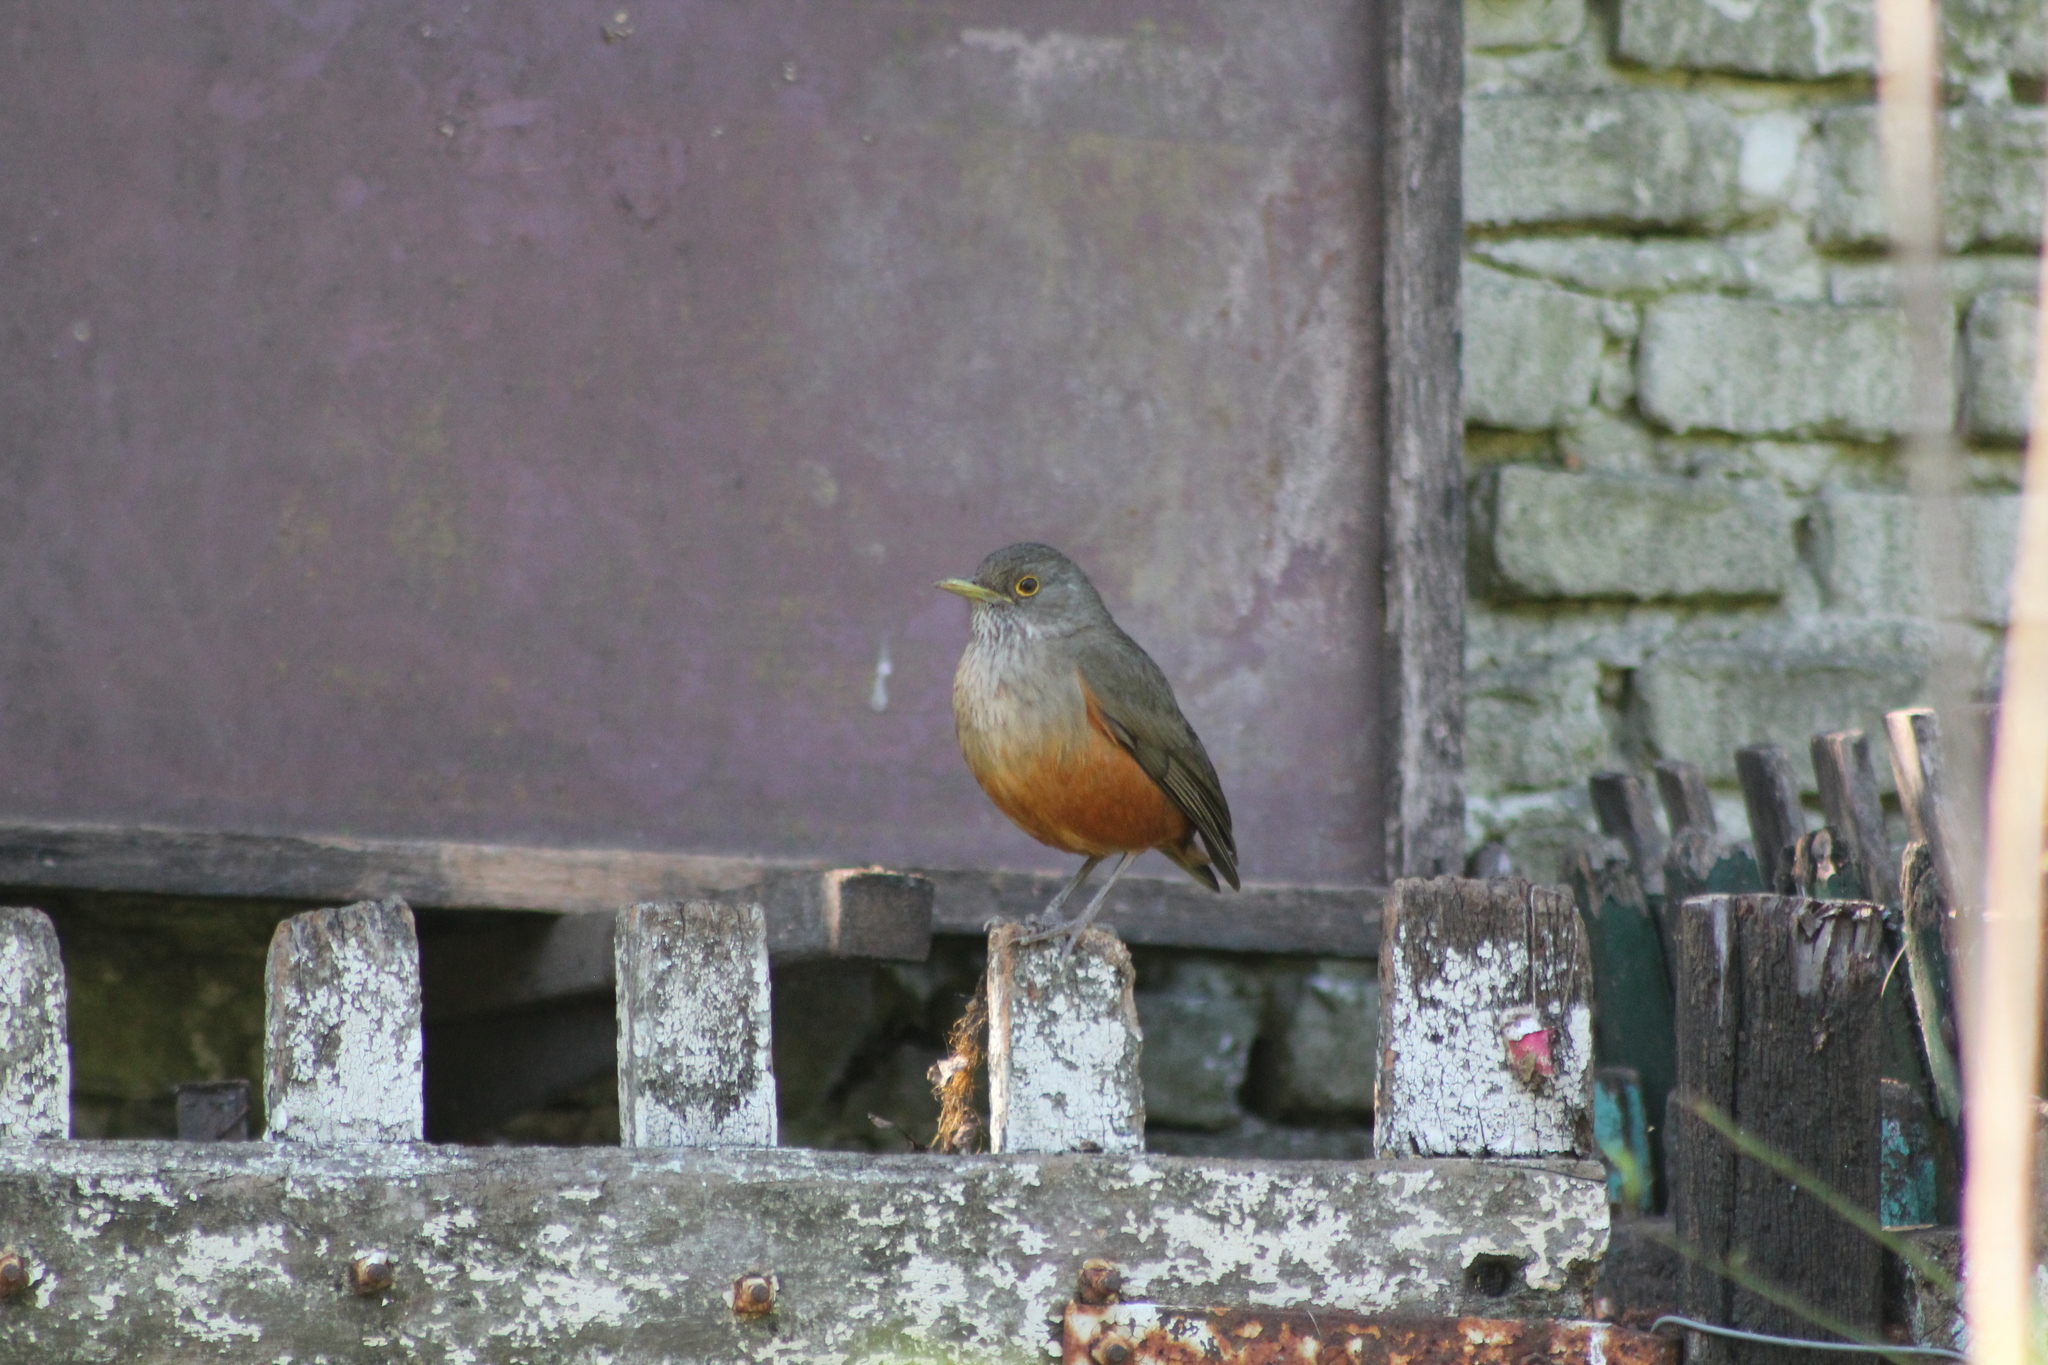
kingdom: Animalia
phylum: Chordata
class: Aves
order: Passeriformes
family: Turdidae
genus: Turdus
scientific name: Turdus rufiventris
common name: Rufous-bellied thrush
